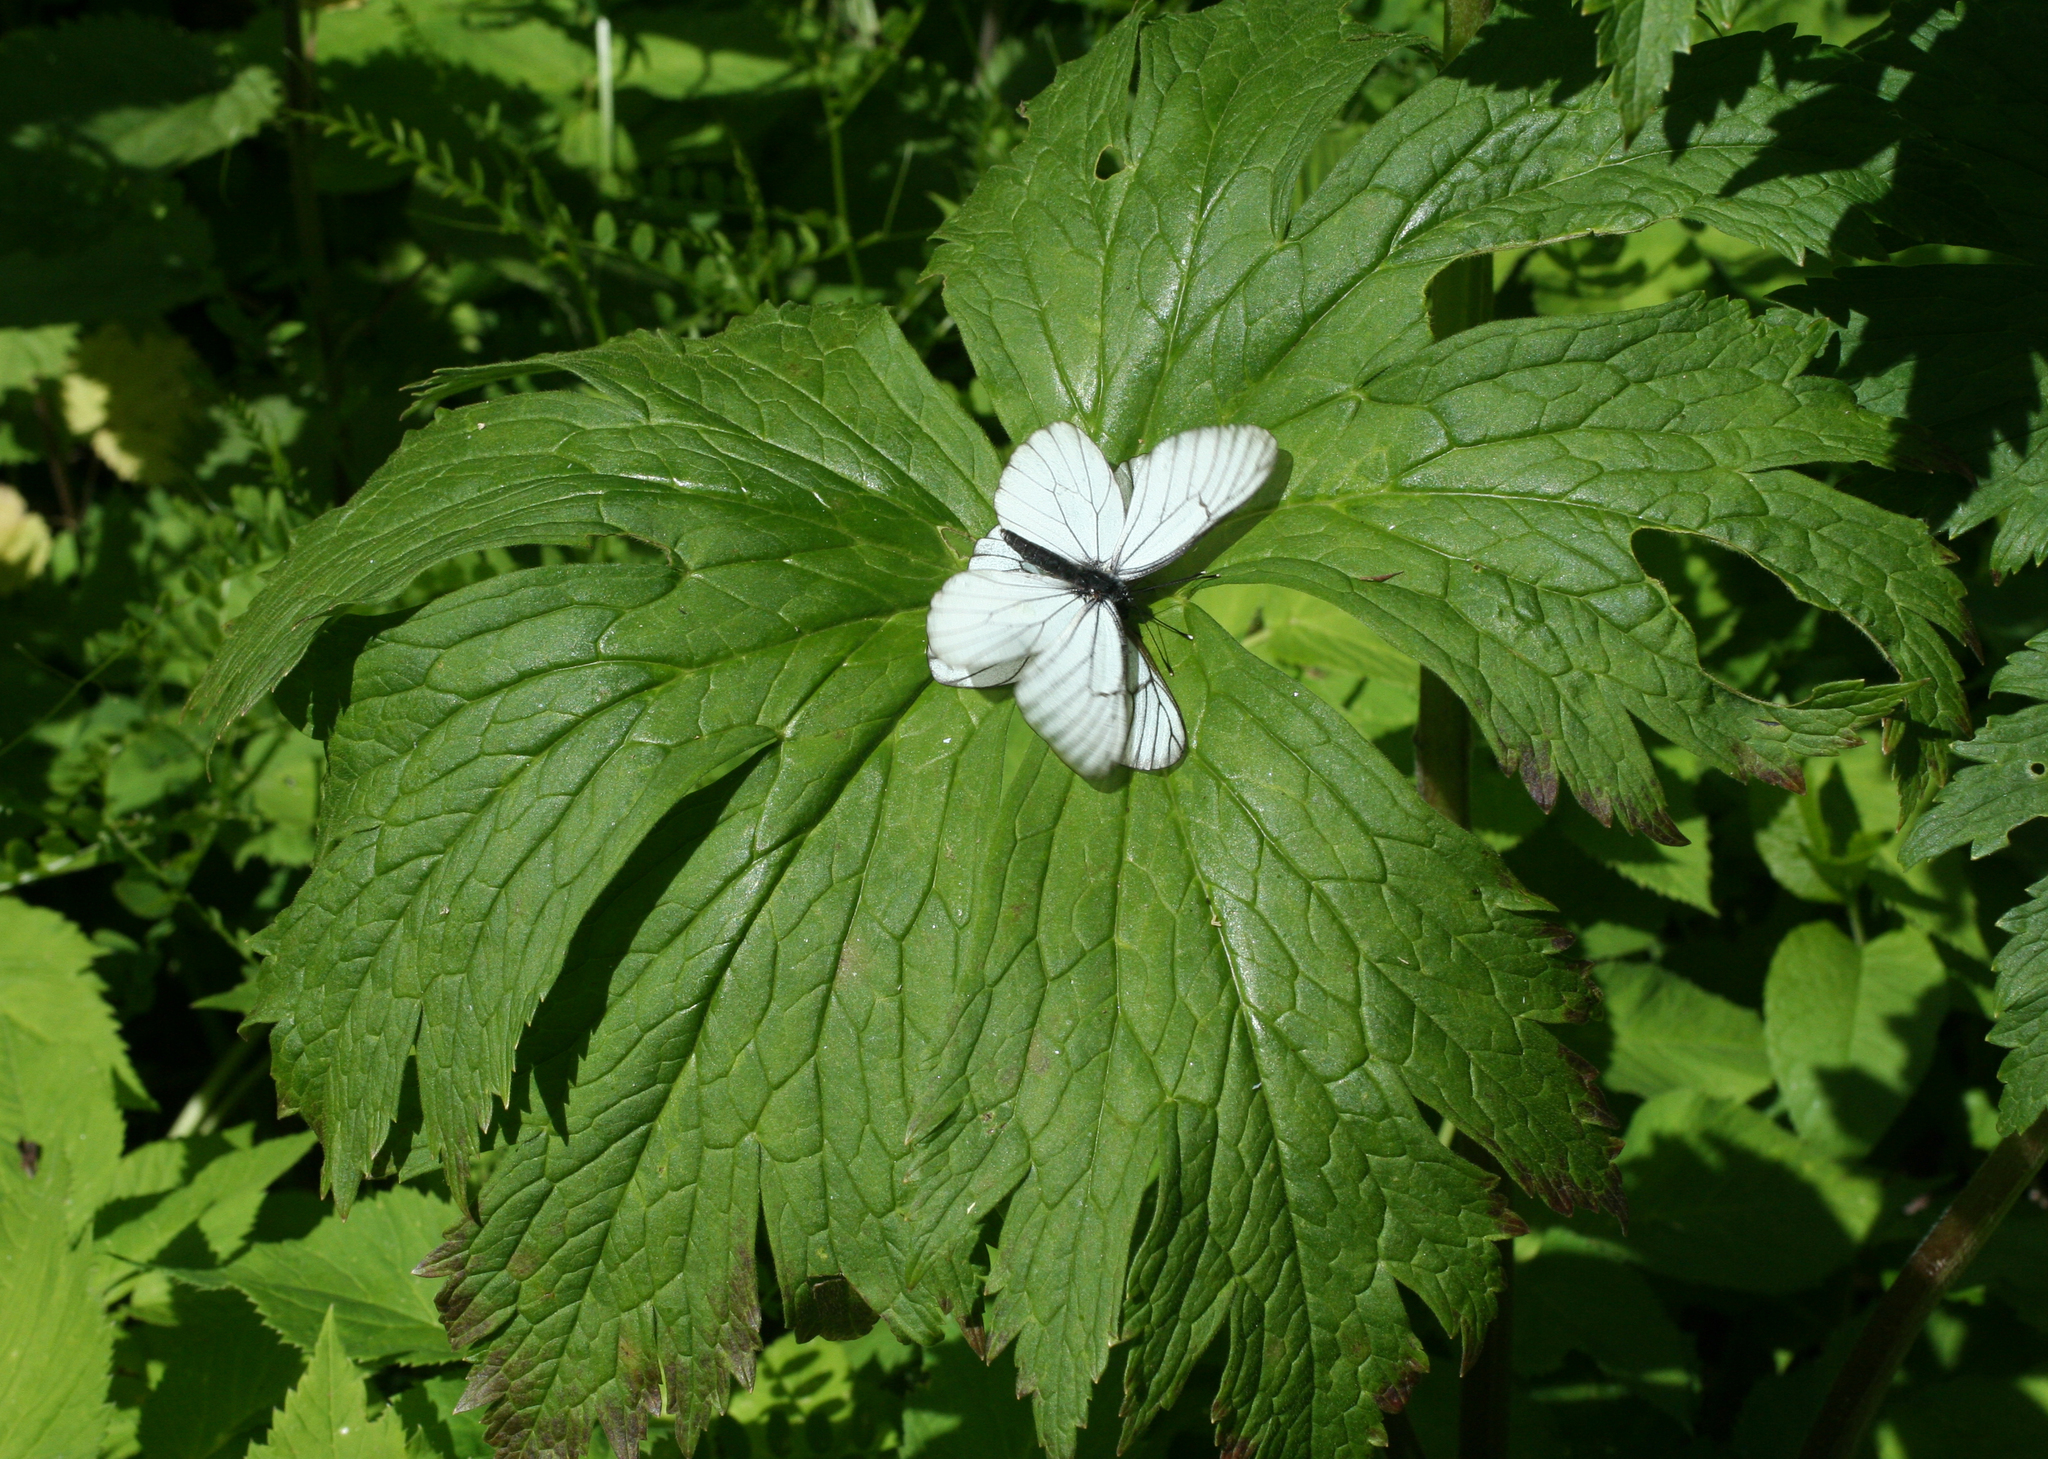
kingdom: Animalia
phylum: Arthropoda
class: Insecta
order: Lepidoptera
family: Pieridae
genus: Aporia
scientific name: Aporia crataegi
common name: Black-veined white
